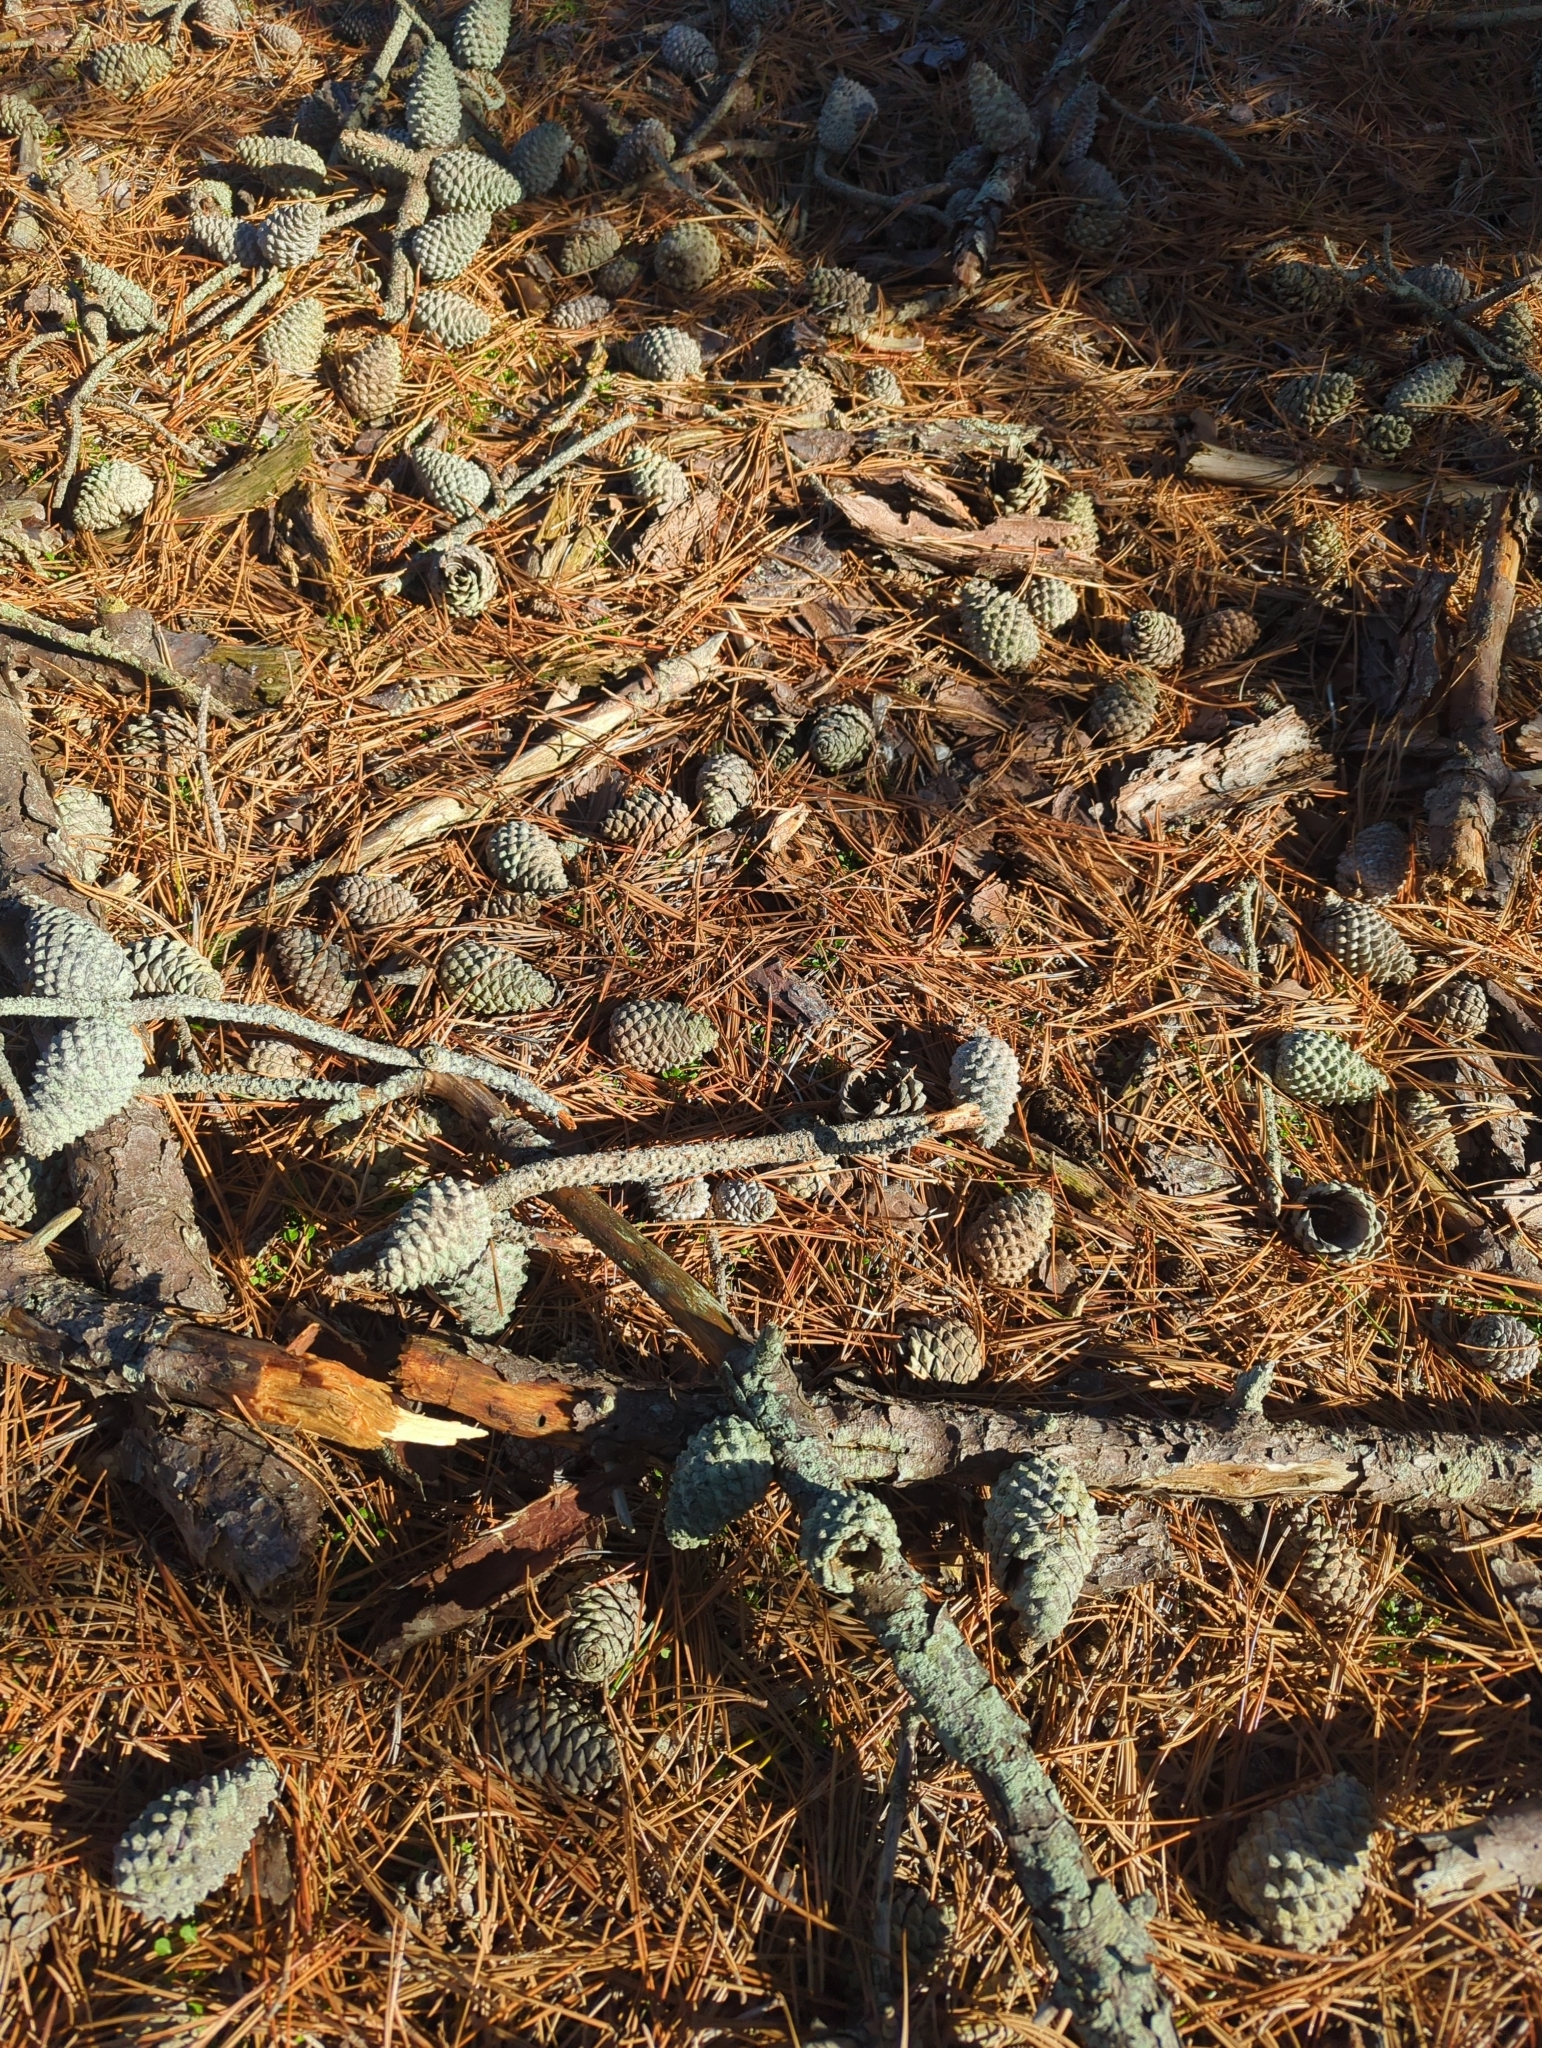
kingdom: Plantae
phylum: Tracheophyta
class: Pinopsida
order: Pinales
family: Pinaceae
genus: Pinus
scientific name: Pinus rigida
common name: Pitch pine
